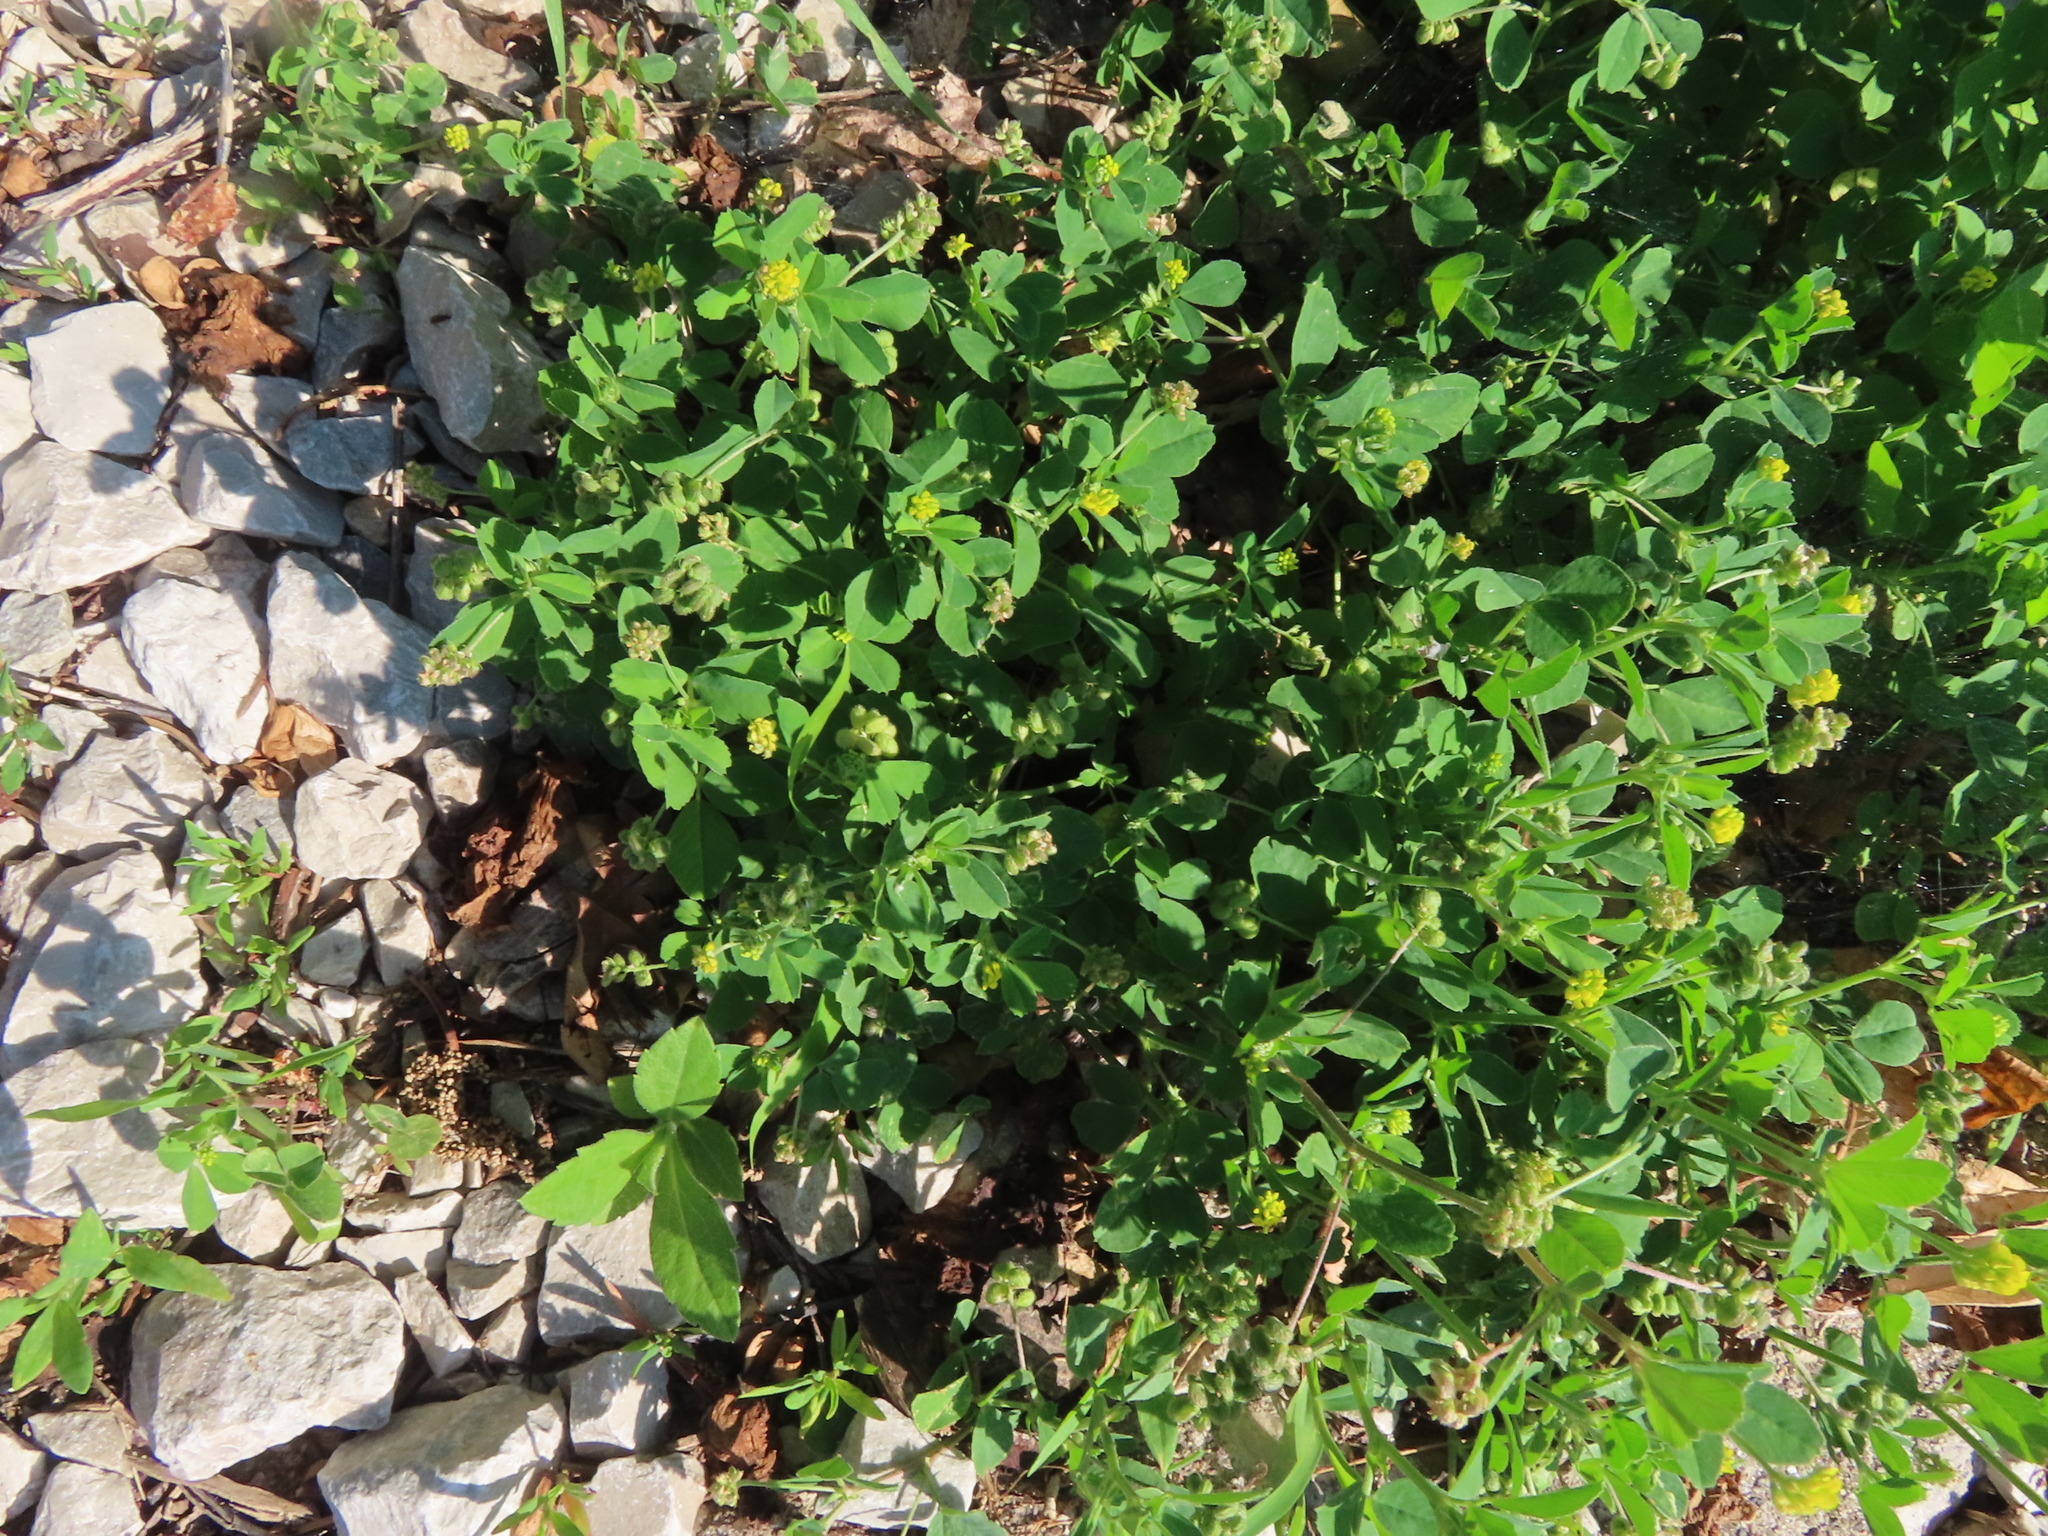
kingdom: Plantae
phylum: Tracheophyta
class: Magnoliopsida
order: Fabales
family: Fabaceae
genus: Medicago
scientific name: Medicago lupulina
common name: Black medick
